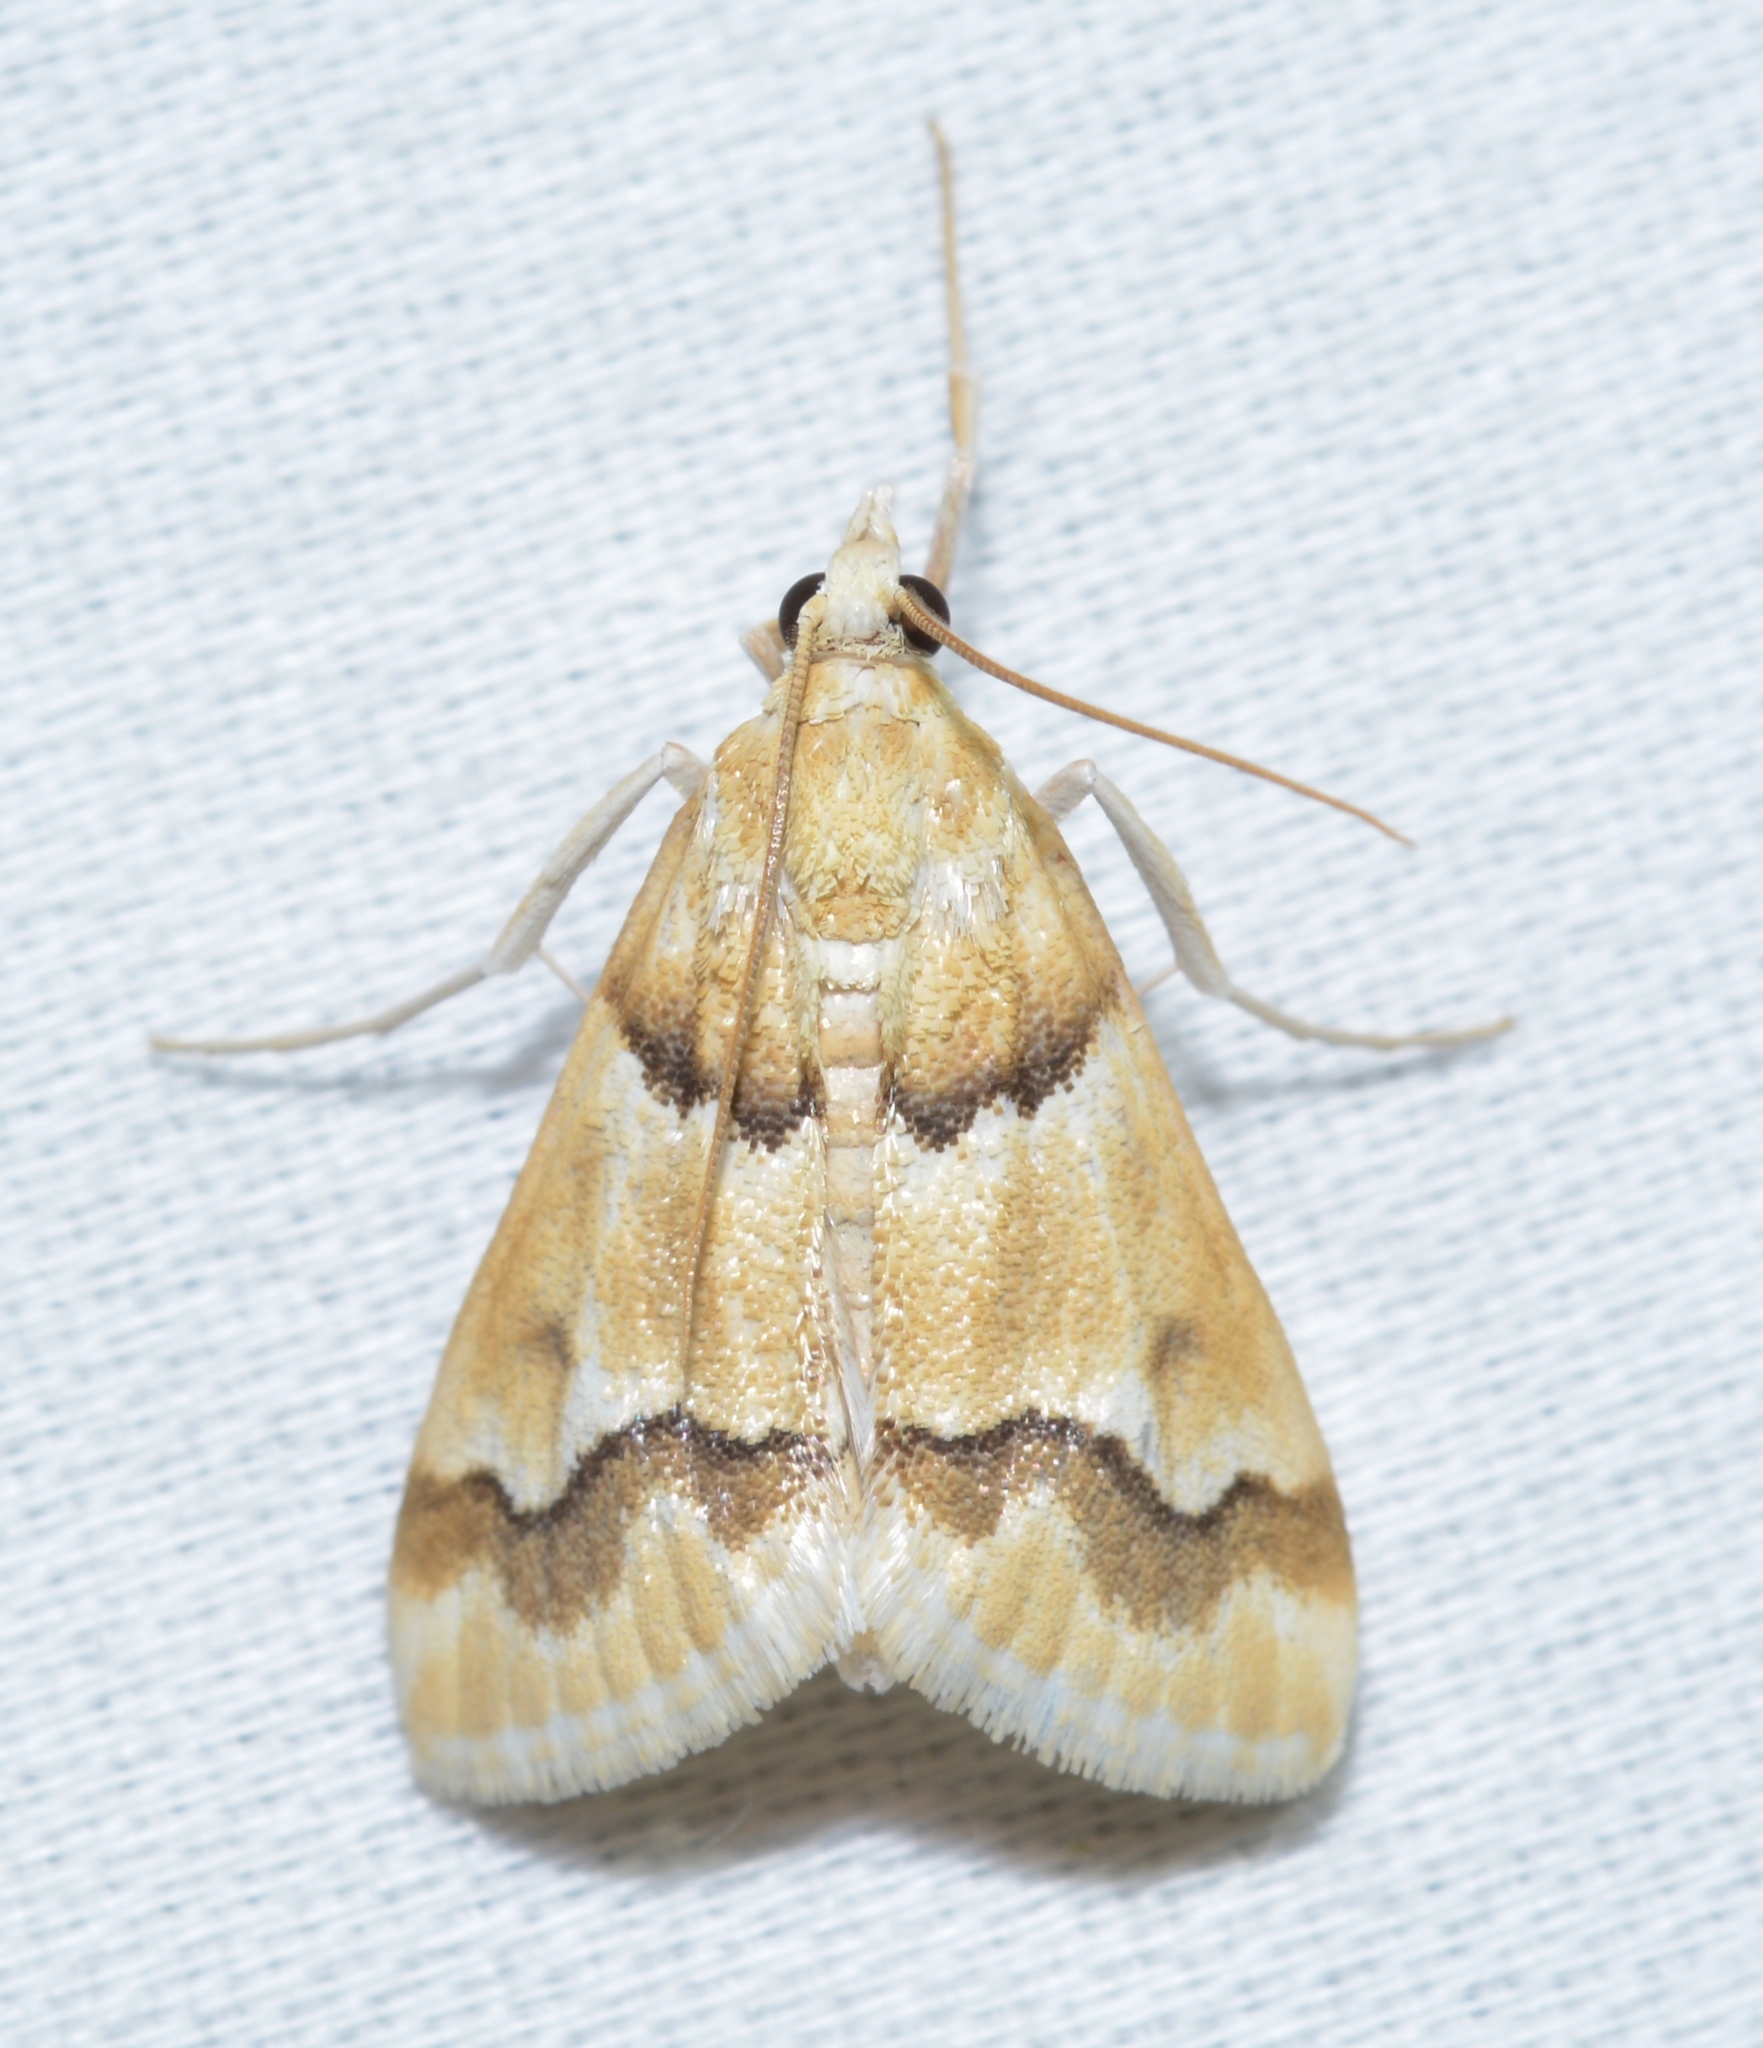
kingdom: Animalia
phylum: Arthropoda
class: Insecta
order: Lepidoptera
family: Crambidae
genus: Pseudoschinia
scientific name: Pseudoschinia elautalis
